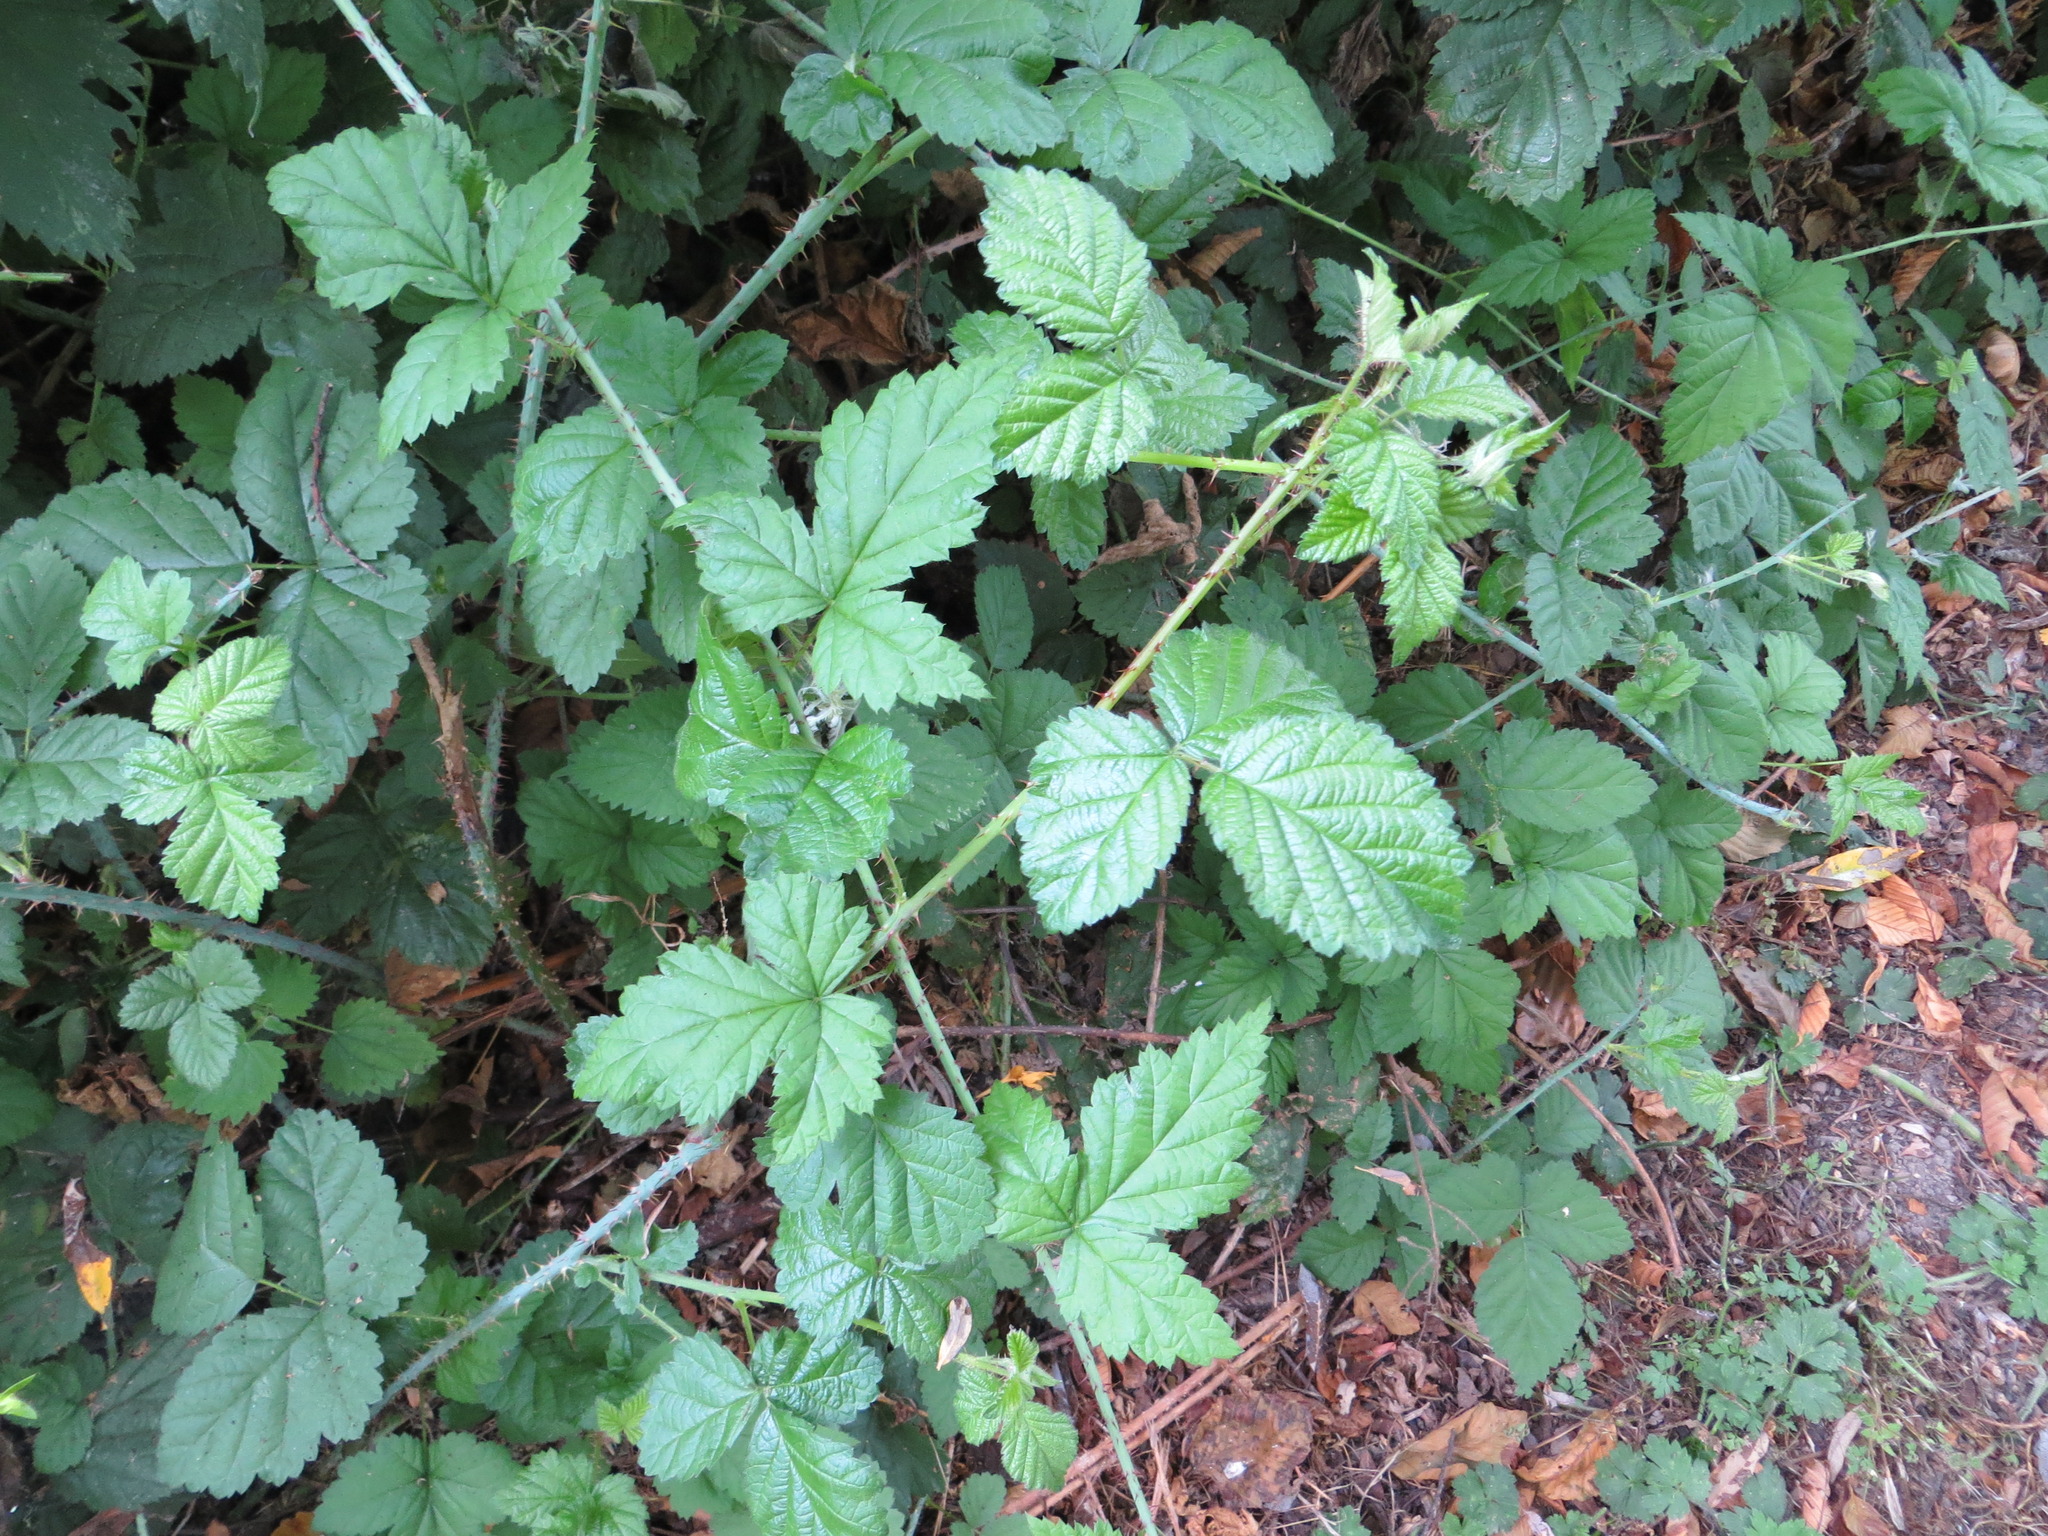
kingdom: Plantae
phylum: Tracheophyta
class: Magnoliopsida
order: Rosales
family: Rosaceae
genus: Rubus
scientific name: Rubus ursinus
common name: Pacific blackberry
